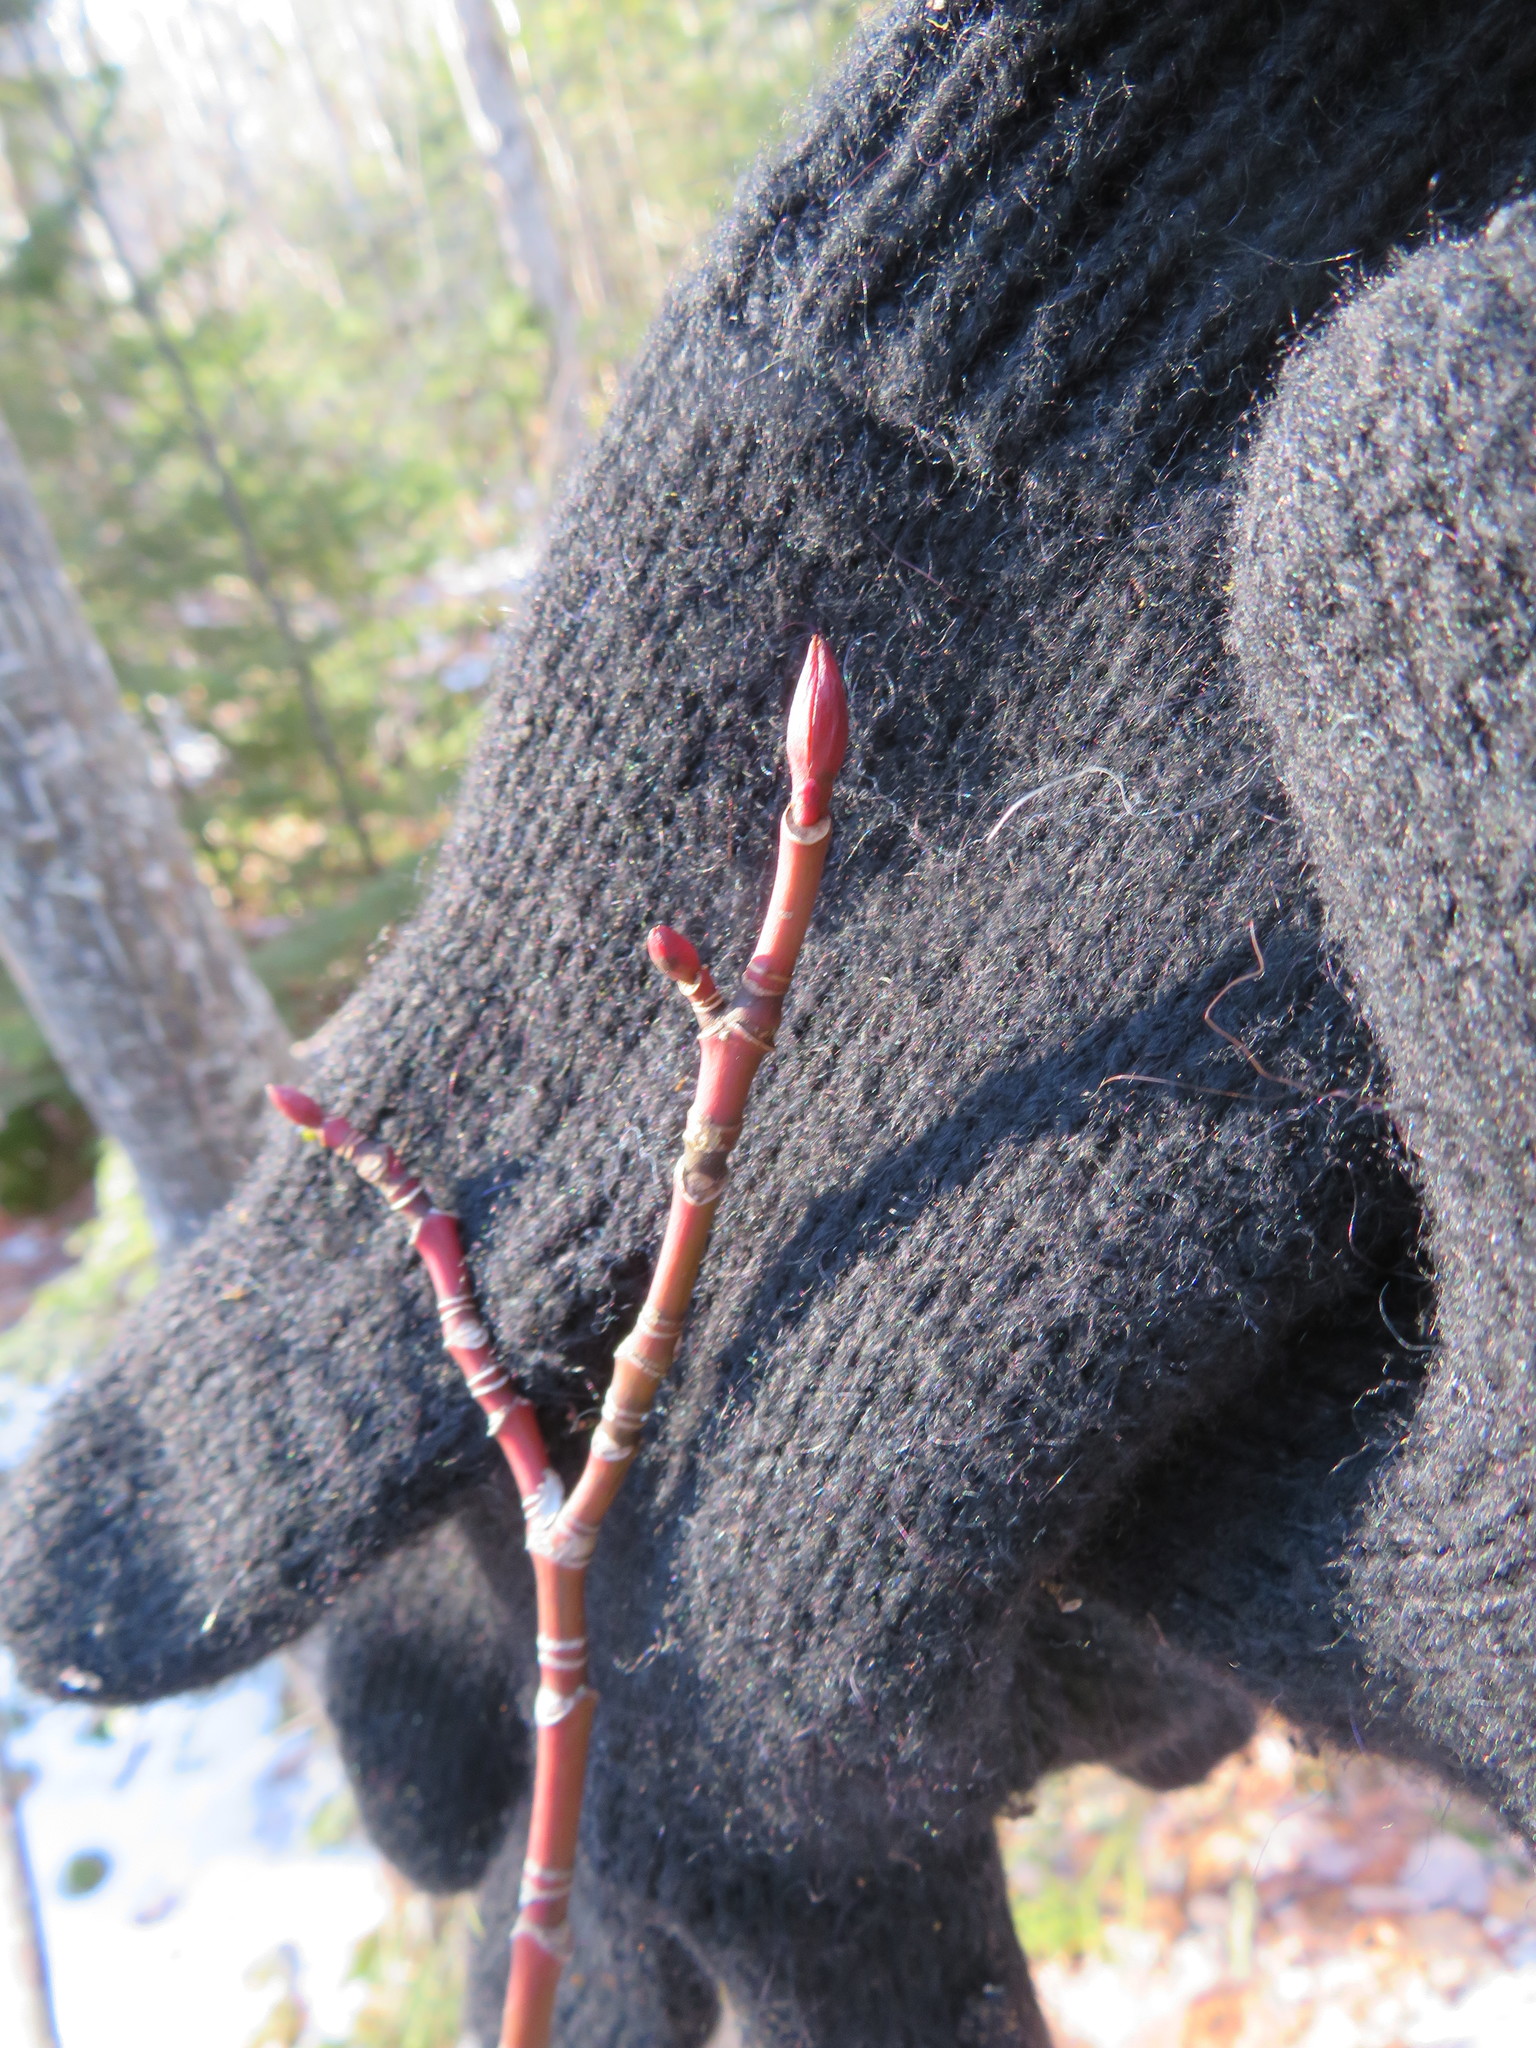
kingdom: Plantae
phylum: Tracheophyta
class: Magnoliopsida
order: Sapindales
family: Sapindaceae
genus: Acer
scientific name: Acer pensylvanicum
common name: Moosewood
